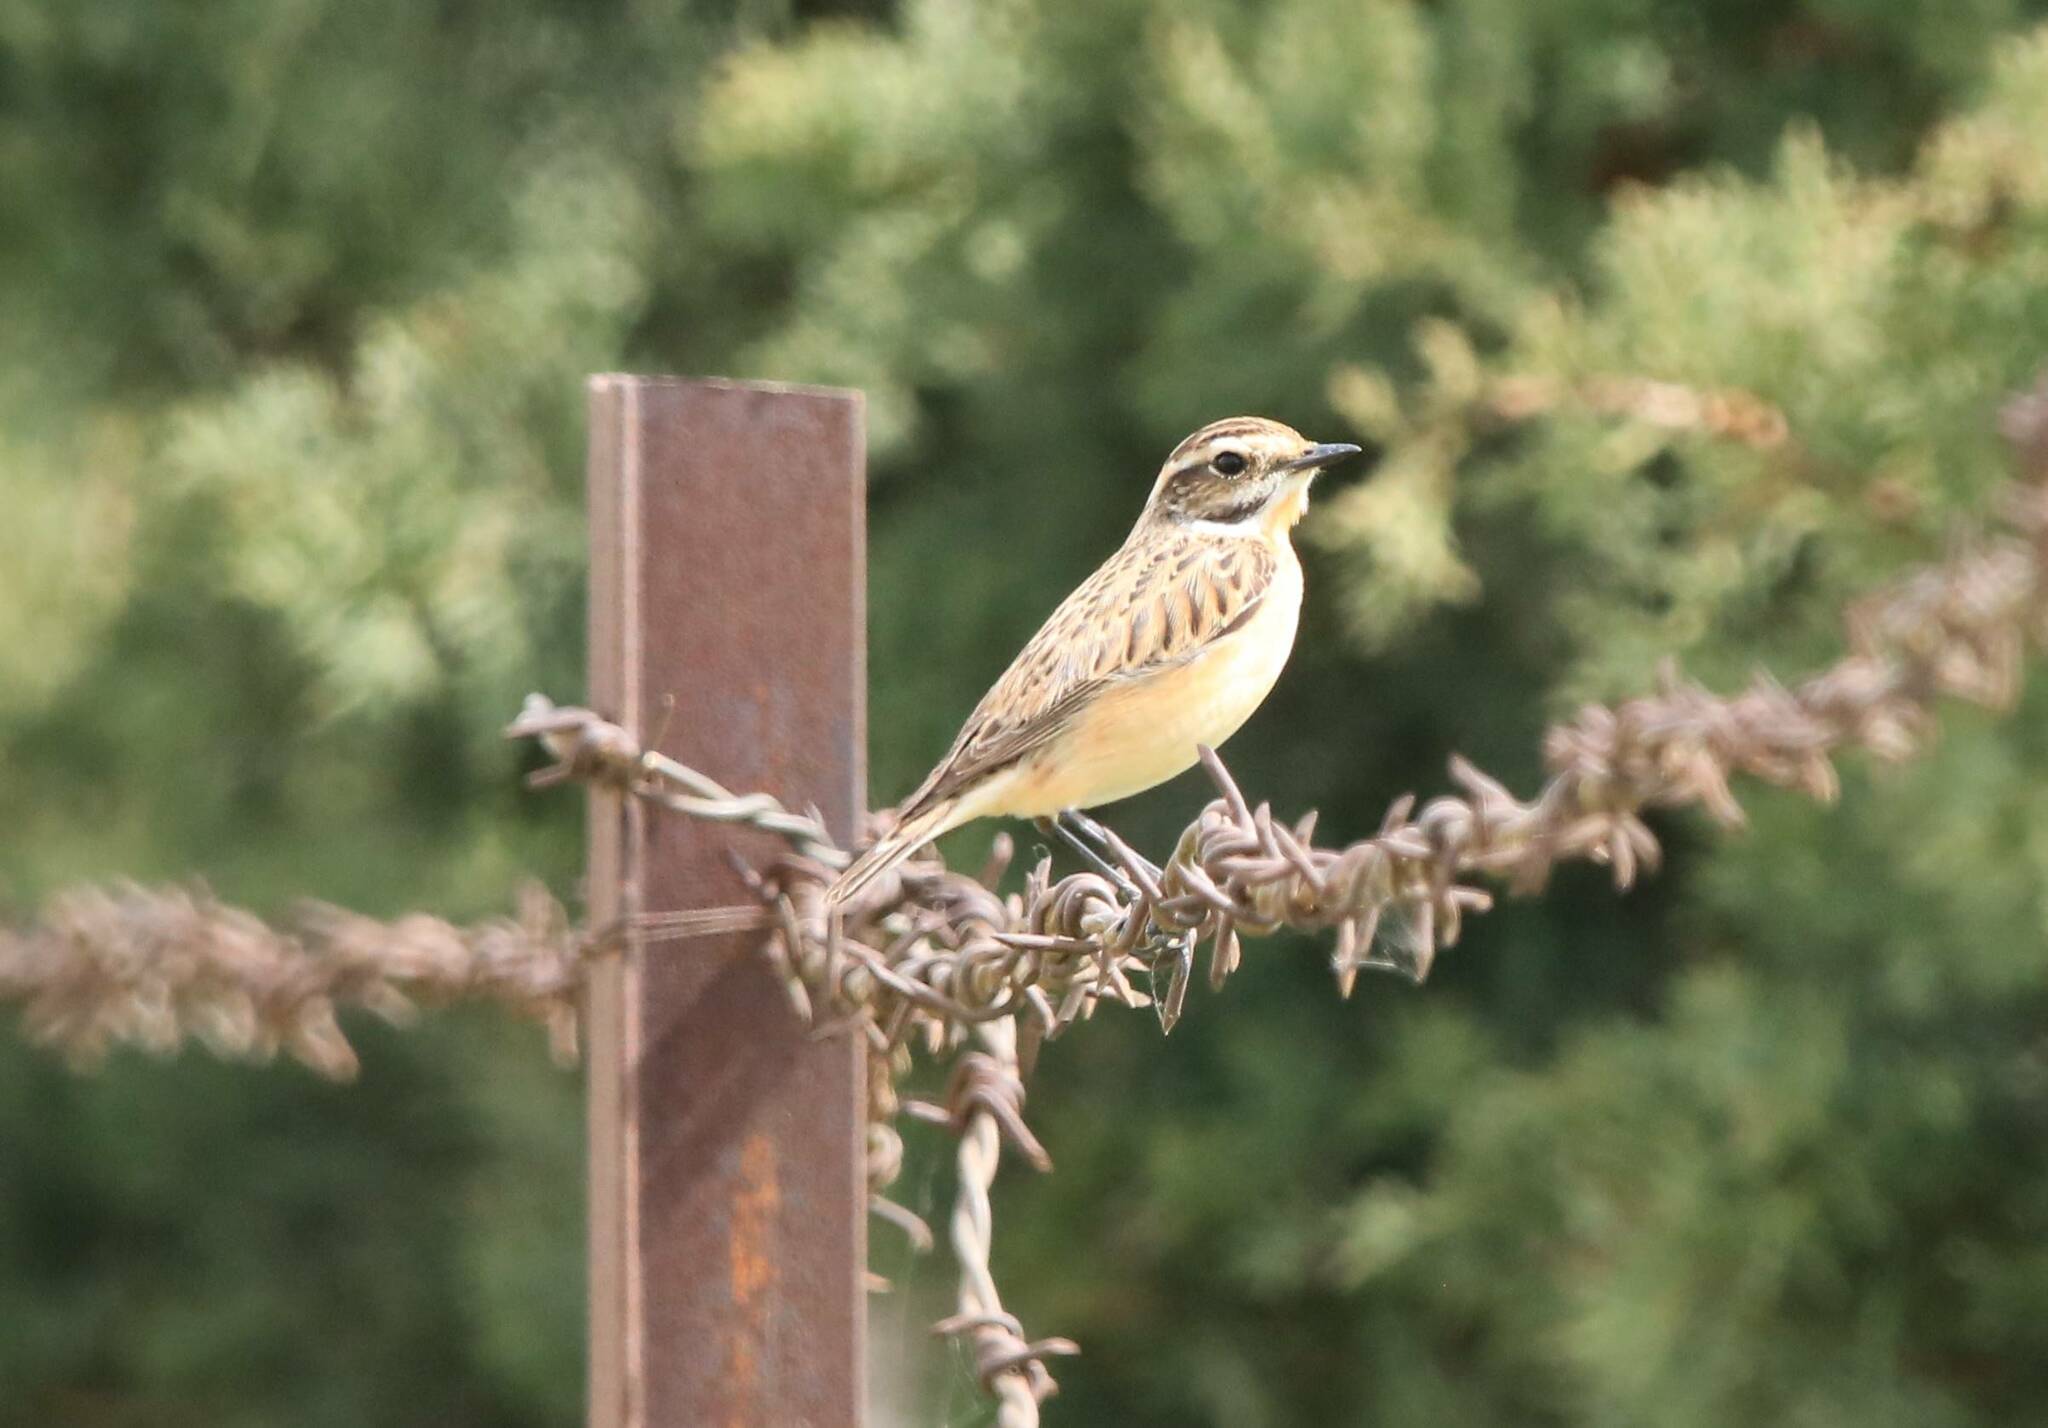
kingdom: Animalia
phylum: Chordata
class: Aves
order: Passeriformes
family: Muscicapidae
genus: Saxicola
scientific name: Saxicola rubetra
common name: Whinchat
